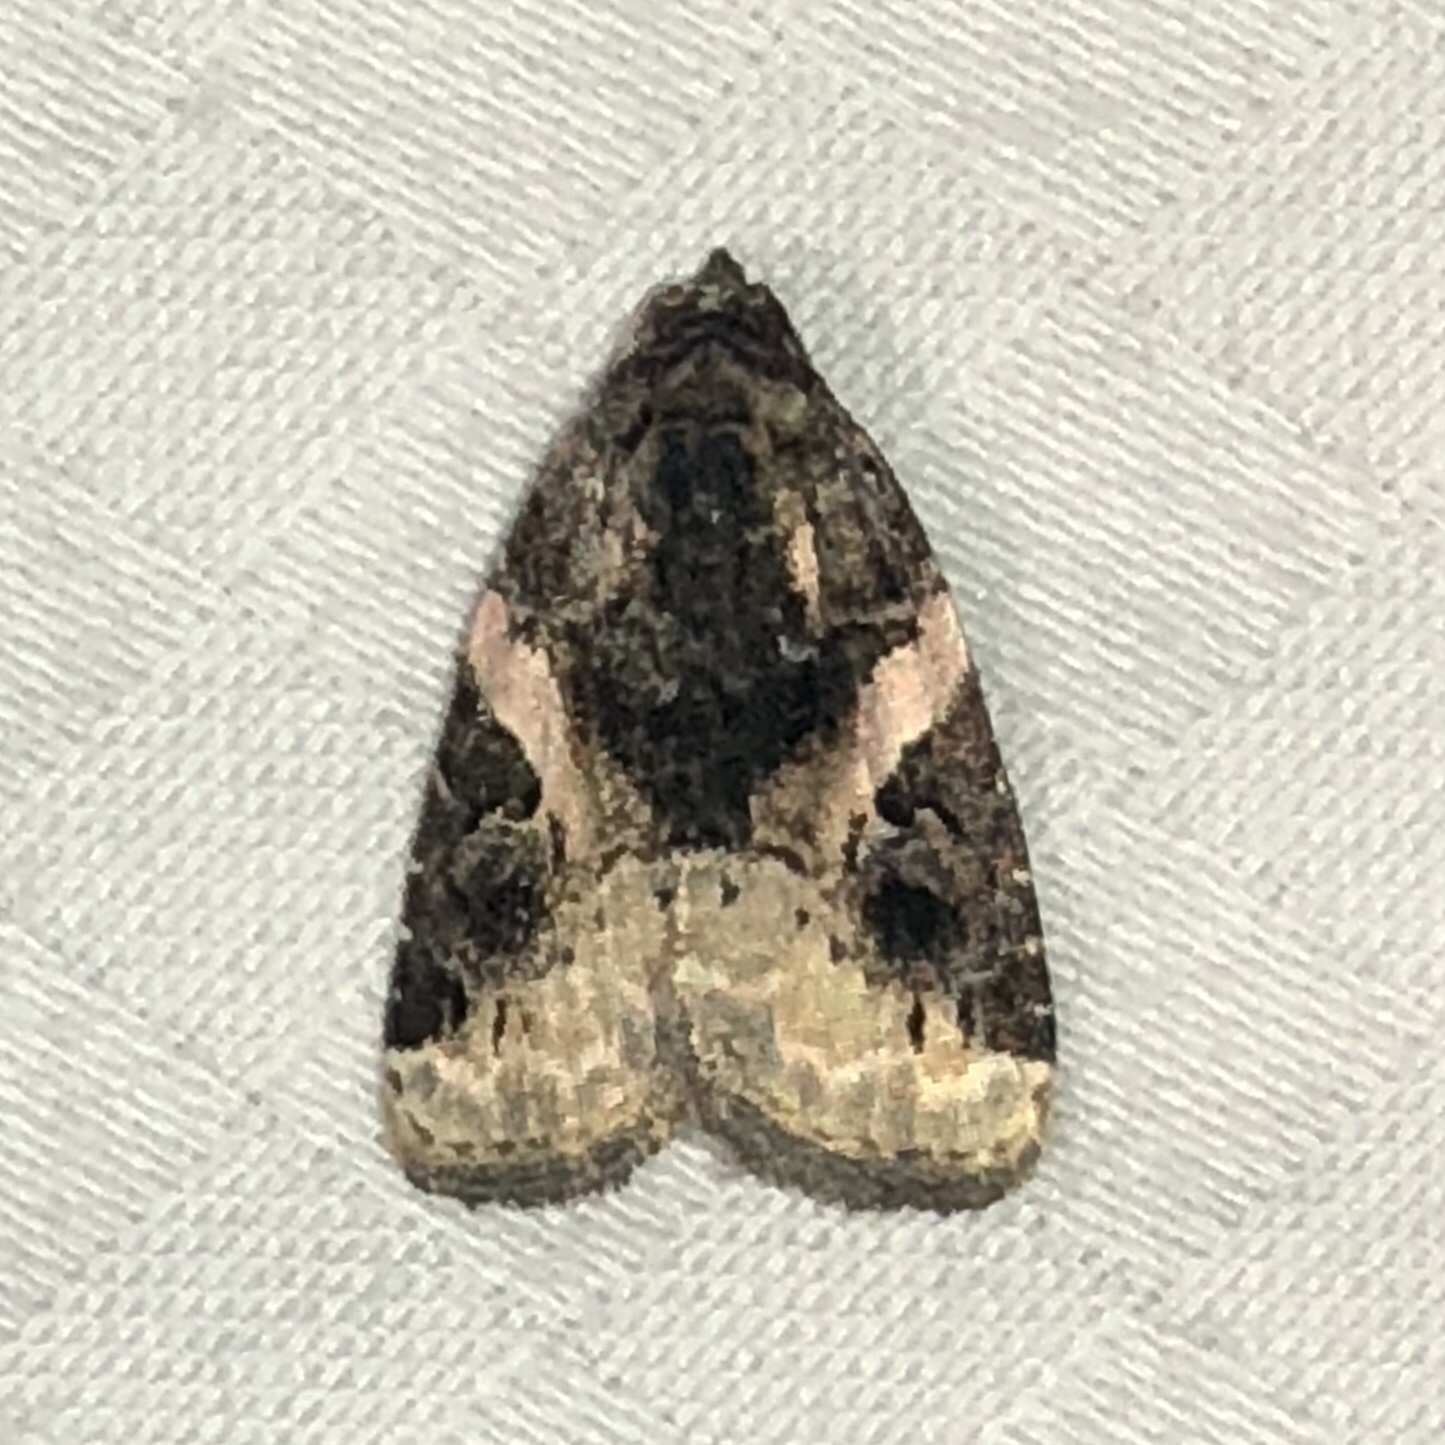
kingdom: Animalia
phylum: Arthropoda
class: Insecta
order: Lepidoptera
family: Noctuidae
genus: Pseudeustrotia
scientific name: Pseudeustrotia carneola
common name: Pink-barred lithacodia moth
